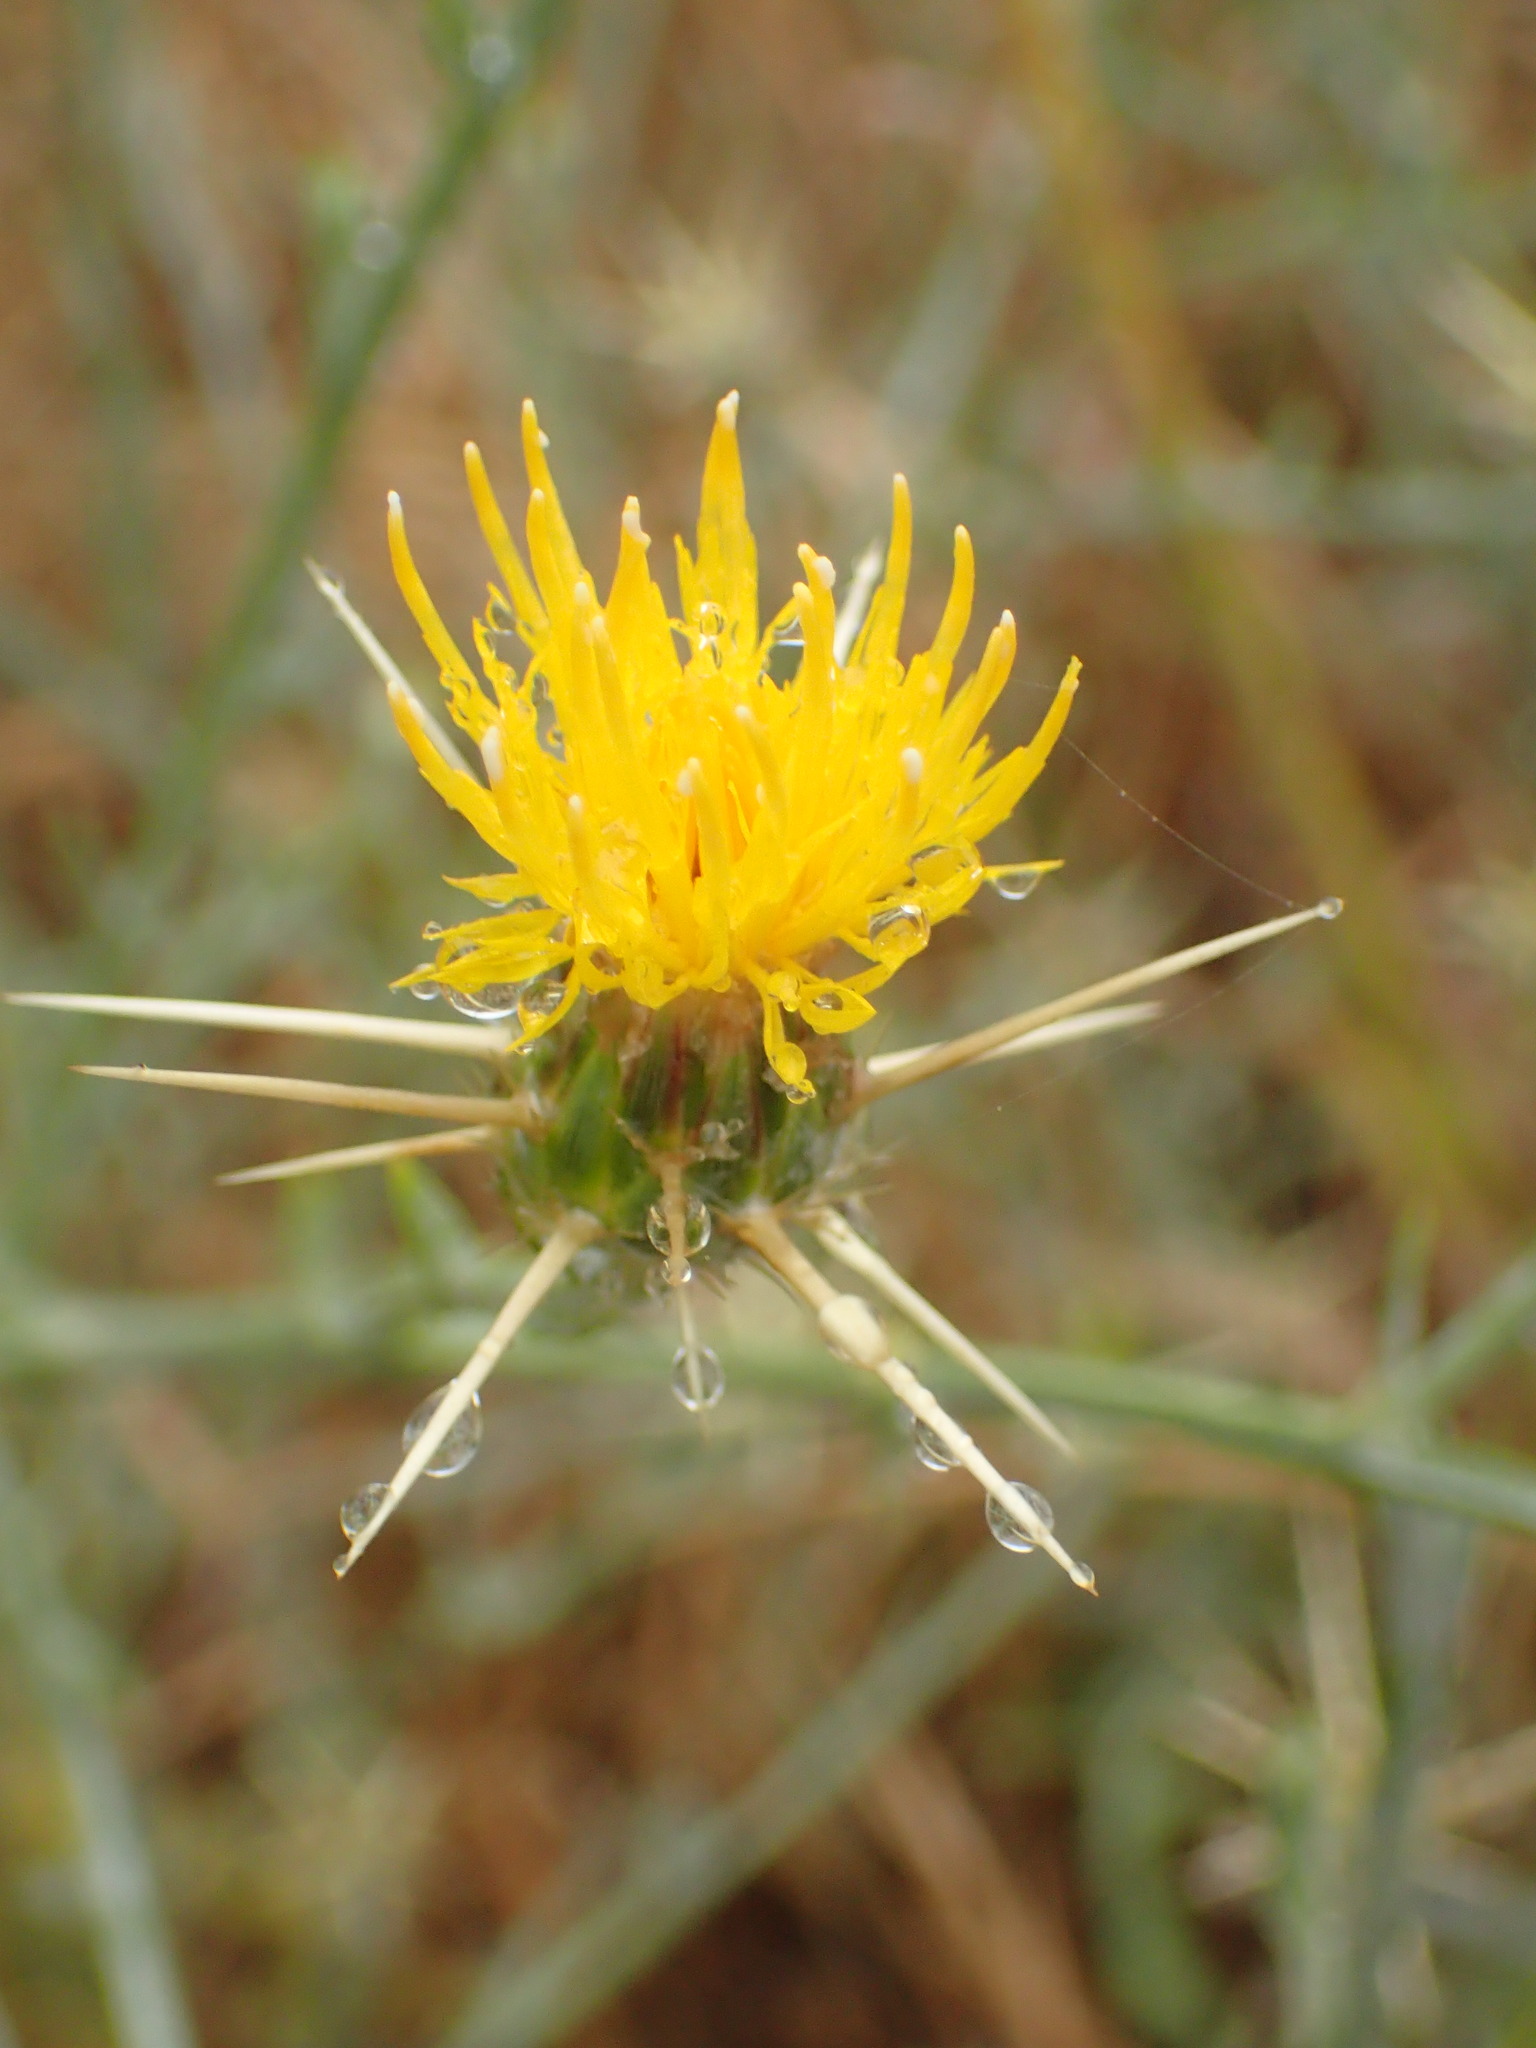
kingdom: Plantae
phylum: Tracheophyta
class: Magnoliopsida
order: Asterales
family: Asteraceae
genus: Centaurea
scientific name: Centaurea solstitialis
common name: Yellow star-thistle
